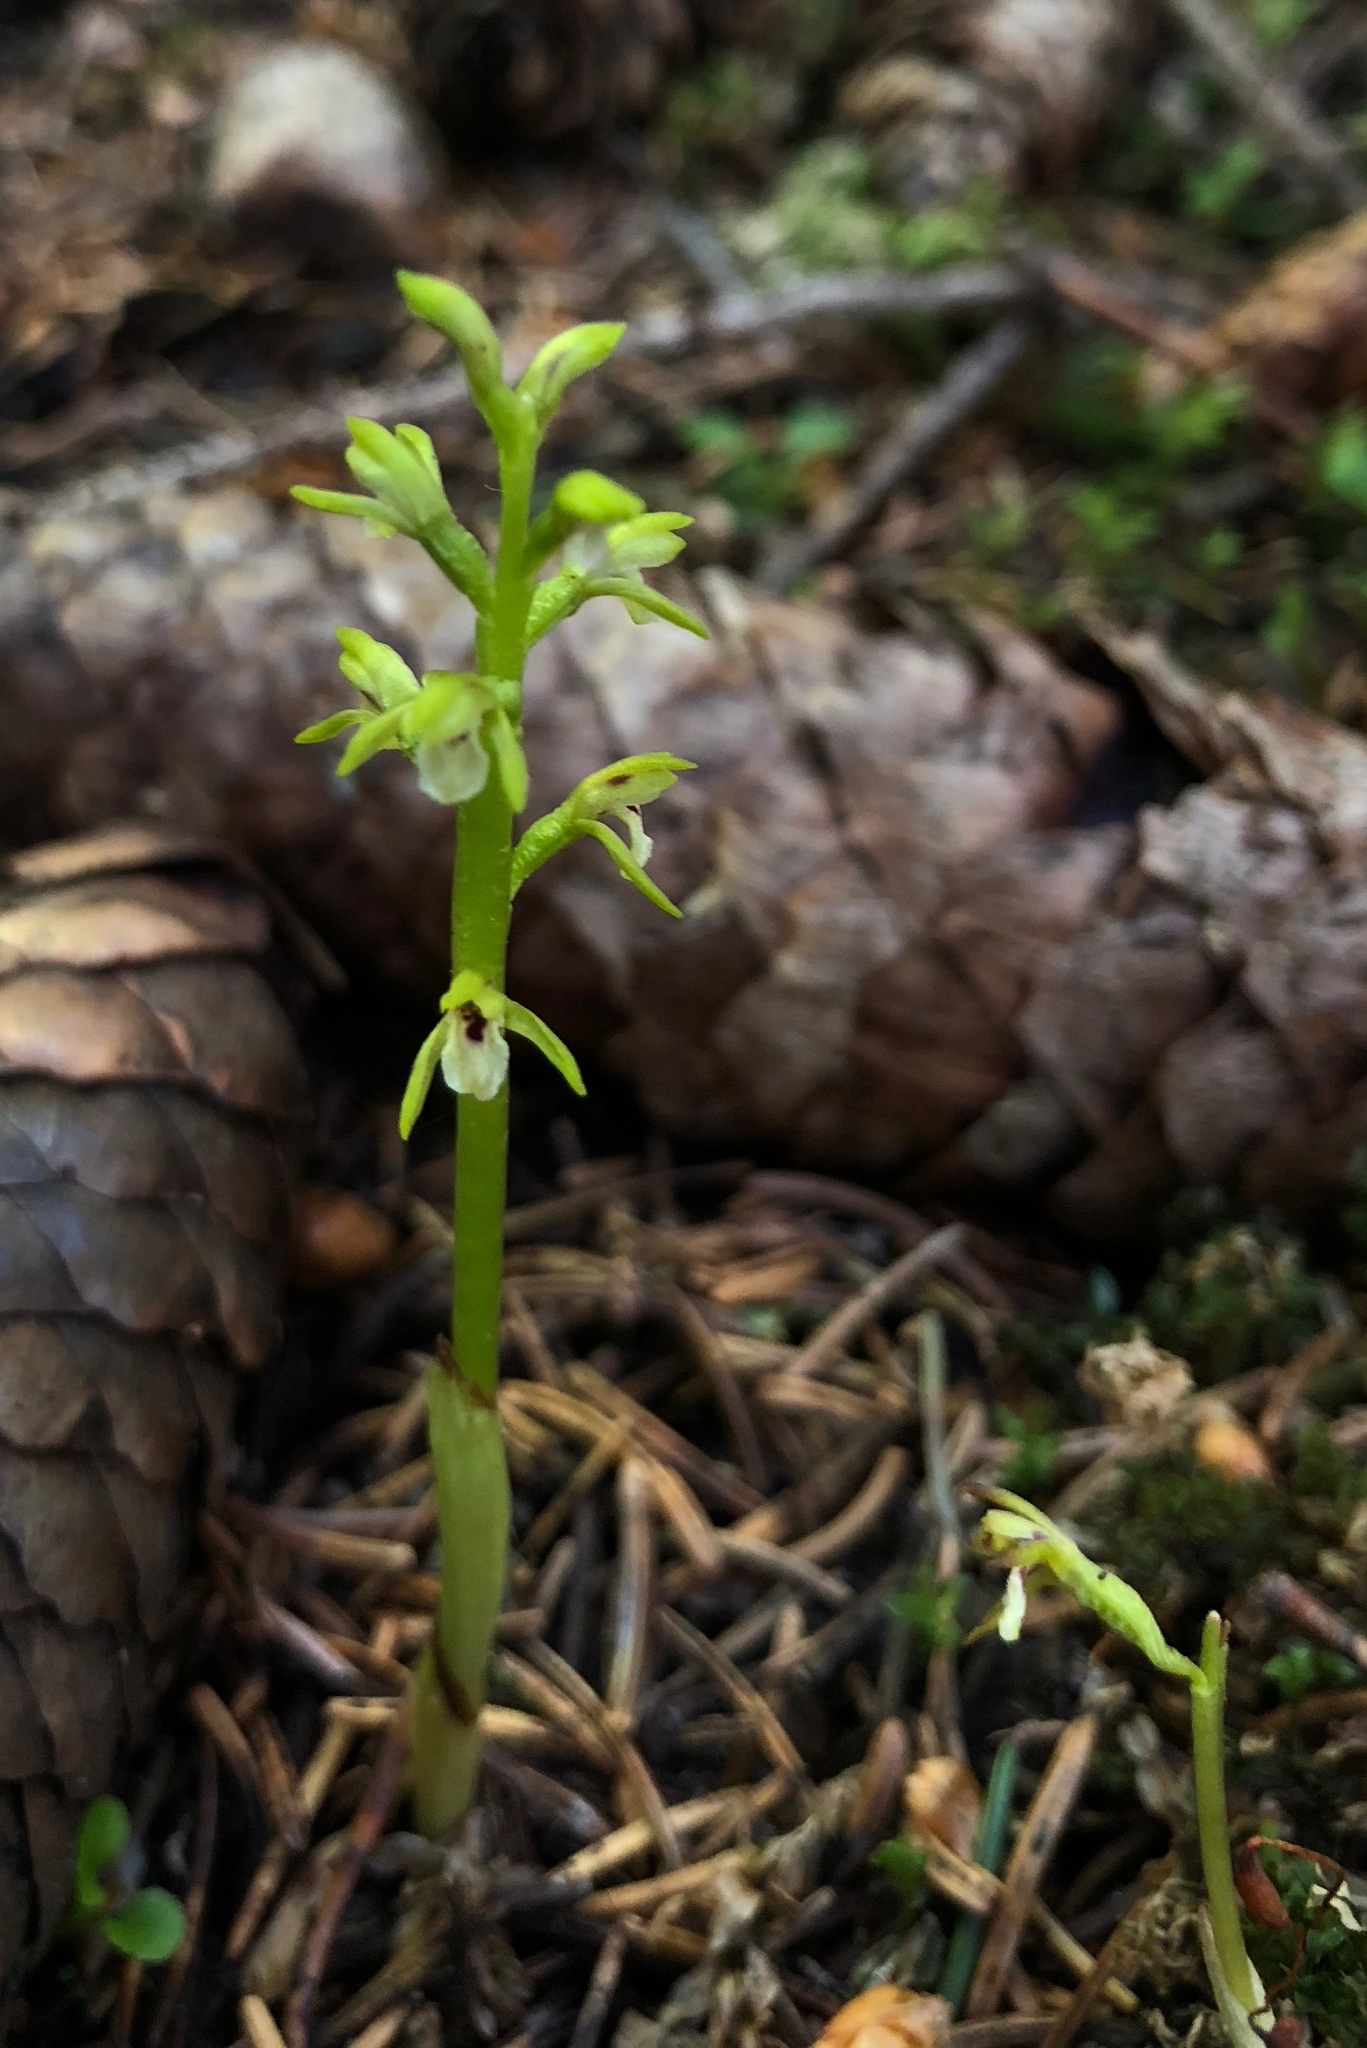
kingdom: Plantae
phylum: Tracheophyta
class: Liliopsida
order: Asparagales
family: Orchidaceae
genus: Corallorhiza
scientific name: Corallorhiza trifida
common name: Yellow coralroot
